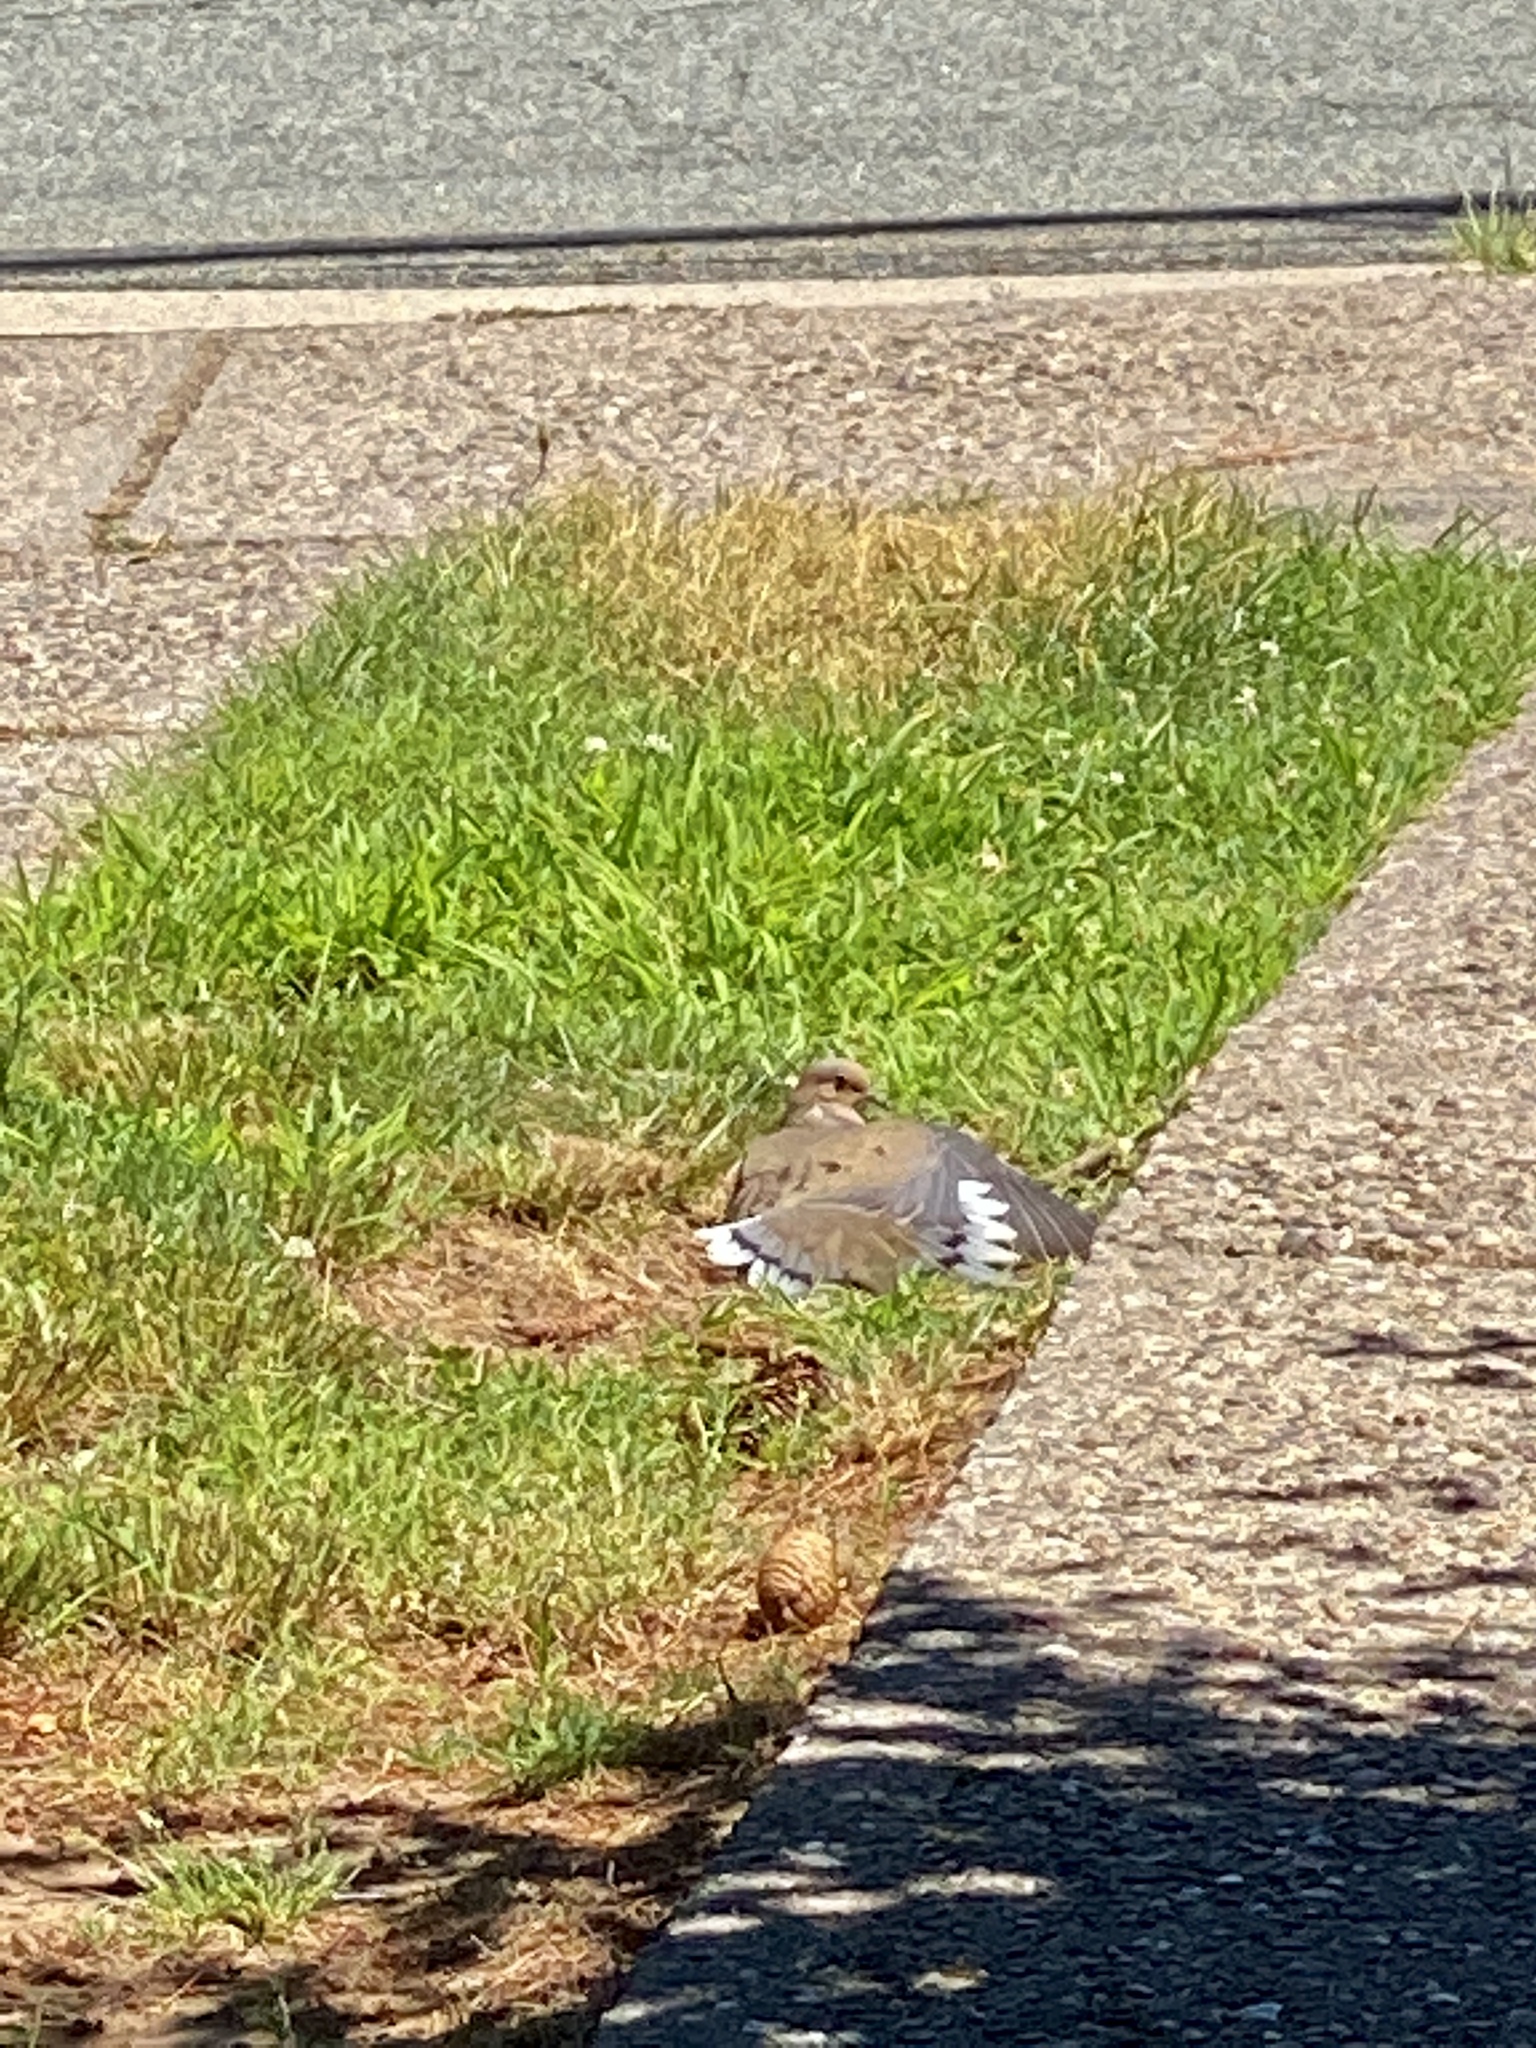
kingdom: Animalia
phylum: Chordata
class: Aves
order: Columbiformes
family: Columbidae
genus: Zenaida
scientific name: Zenaida macroura
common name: Mourning dove
